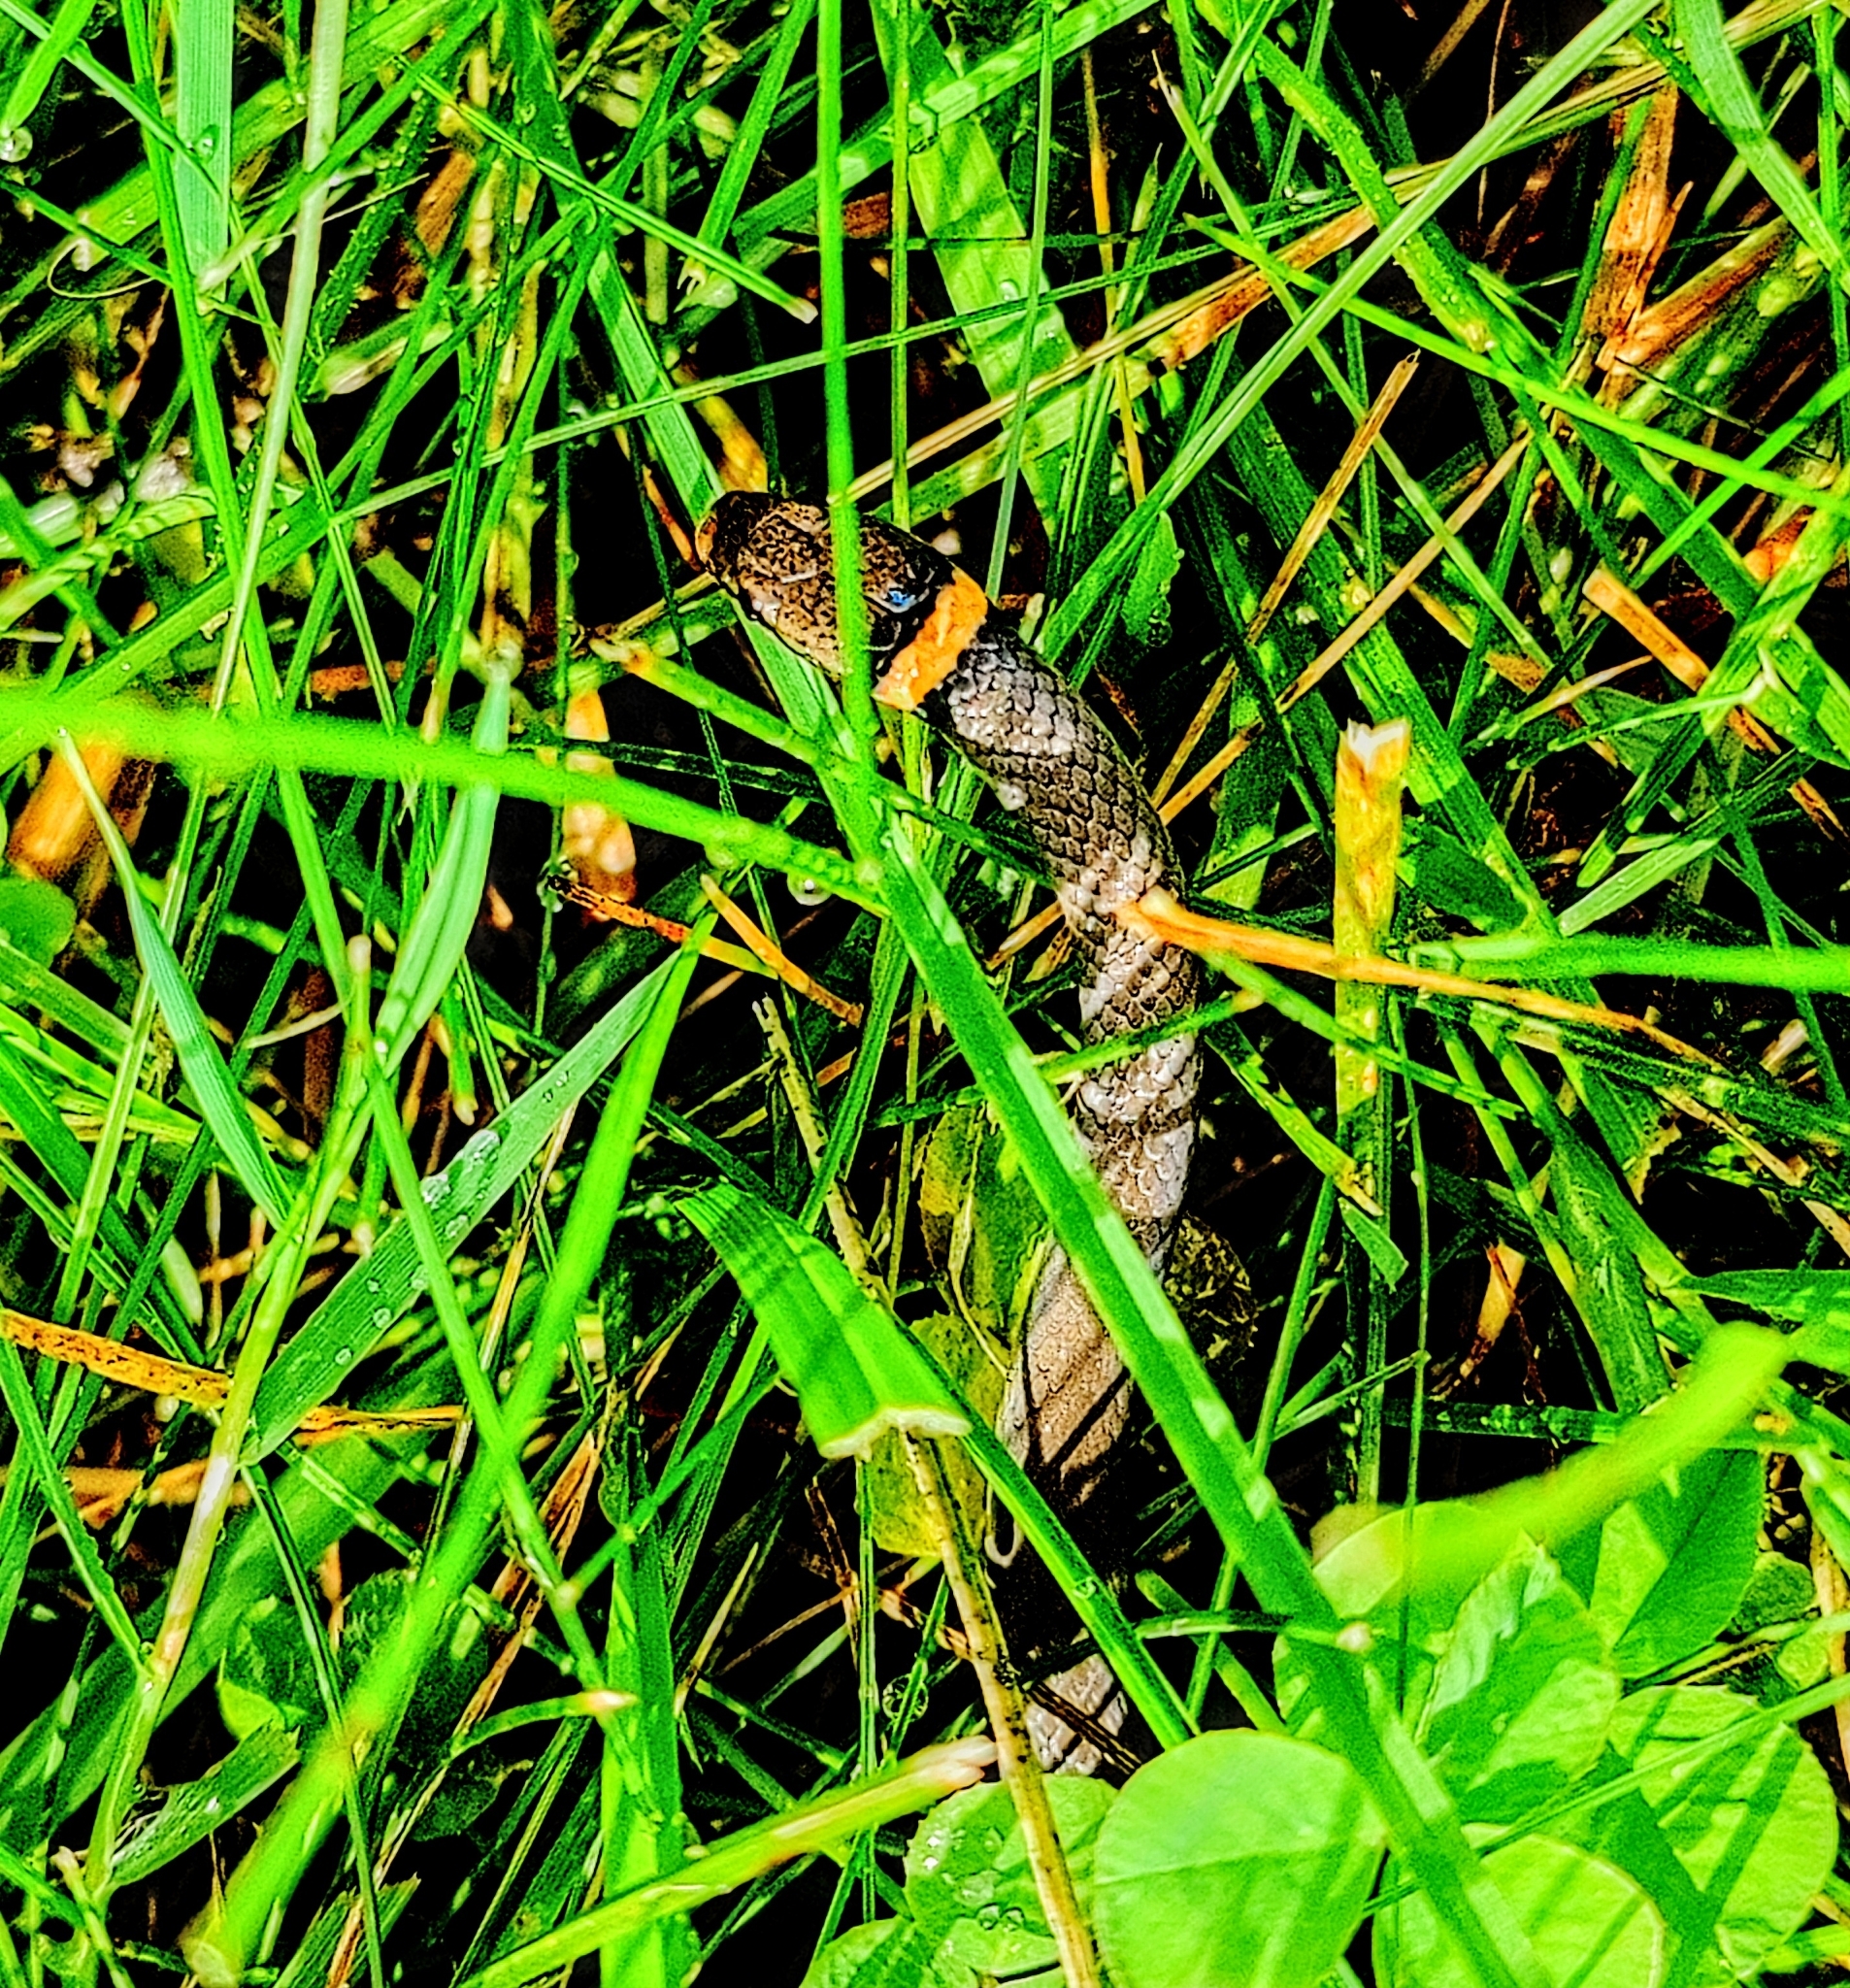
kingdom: Animalia
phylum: Chordata
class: Squamata
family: Colubridae
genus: Diadophis
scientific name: Diadophis punctatus
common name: Ringneck snake
